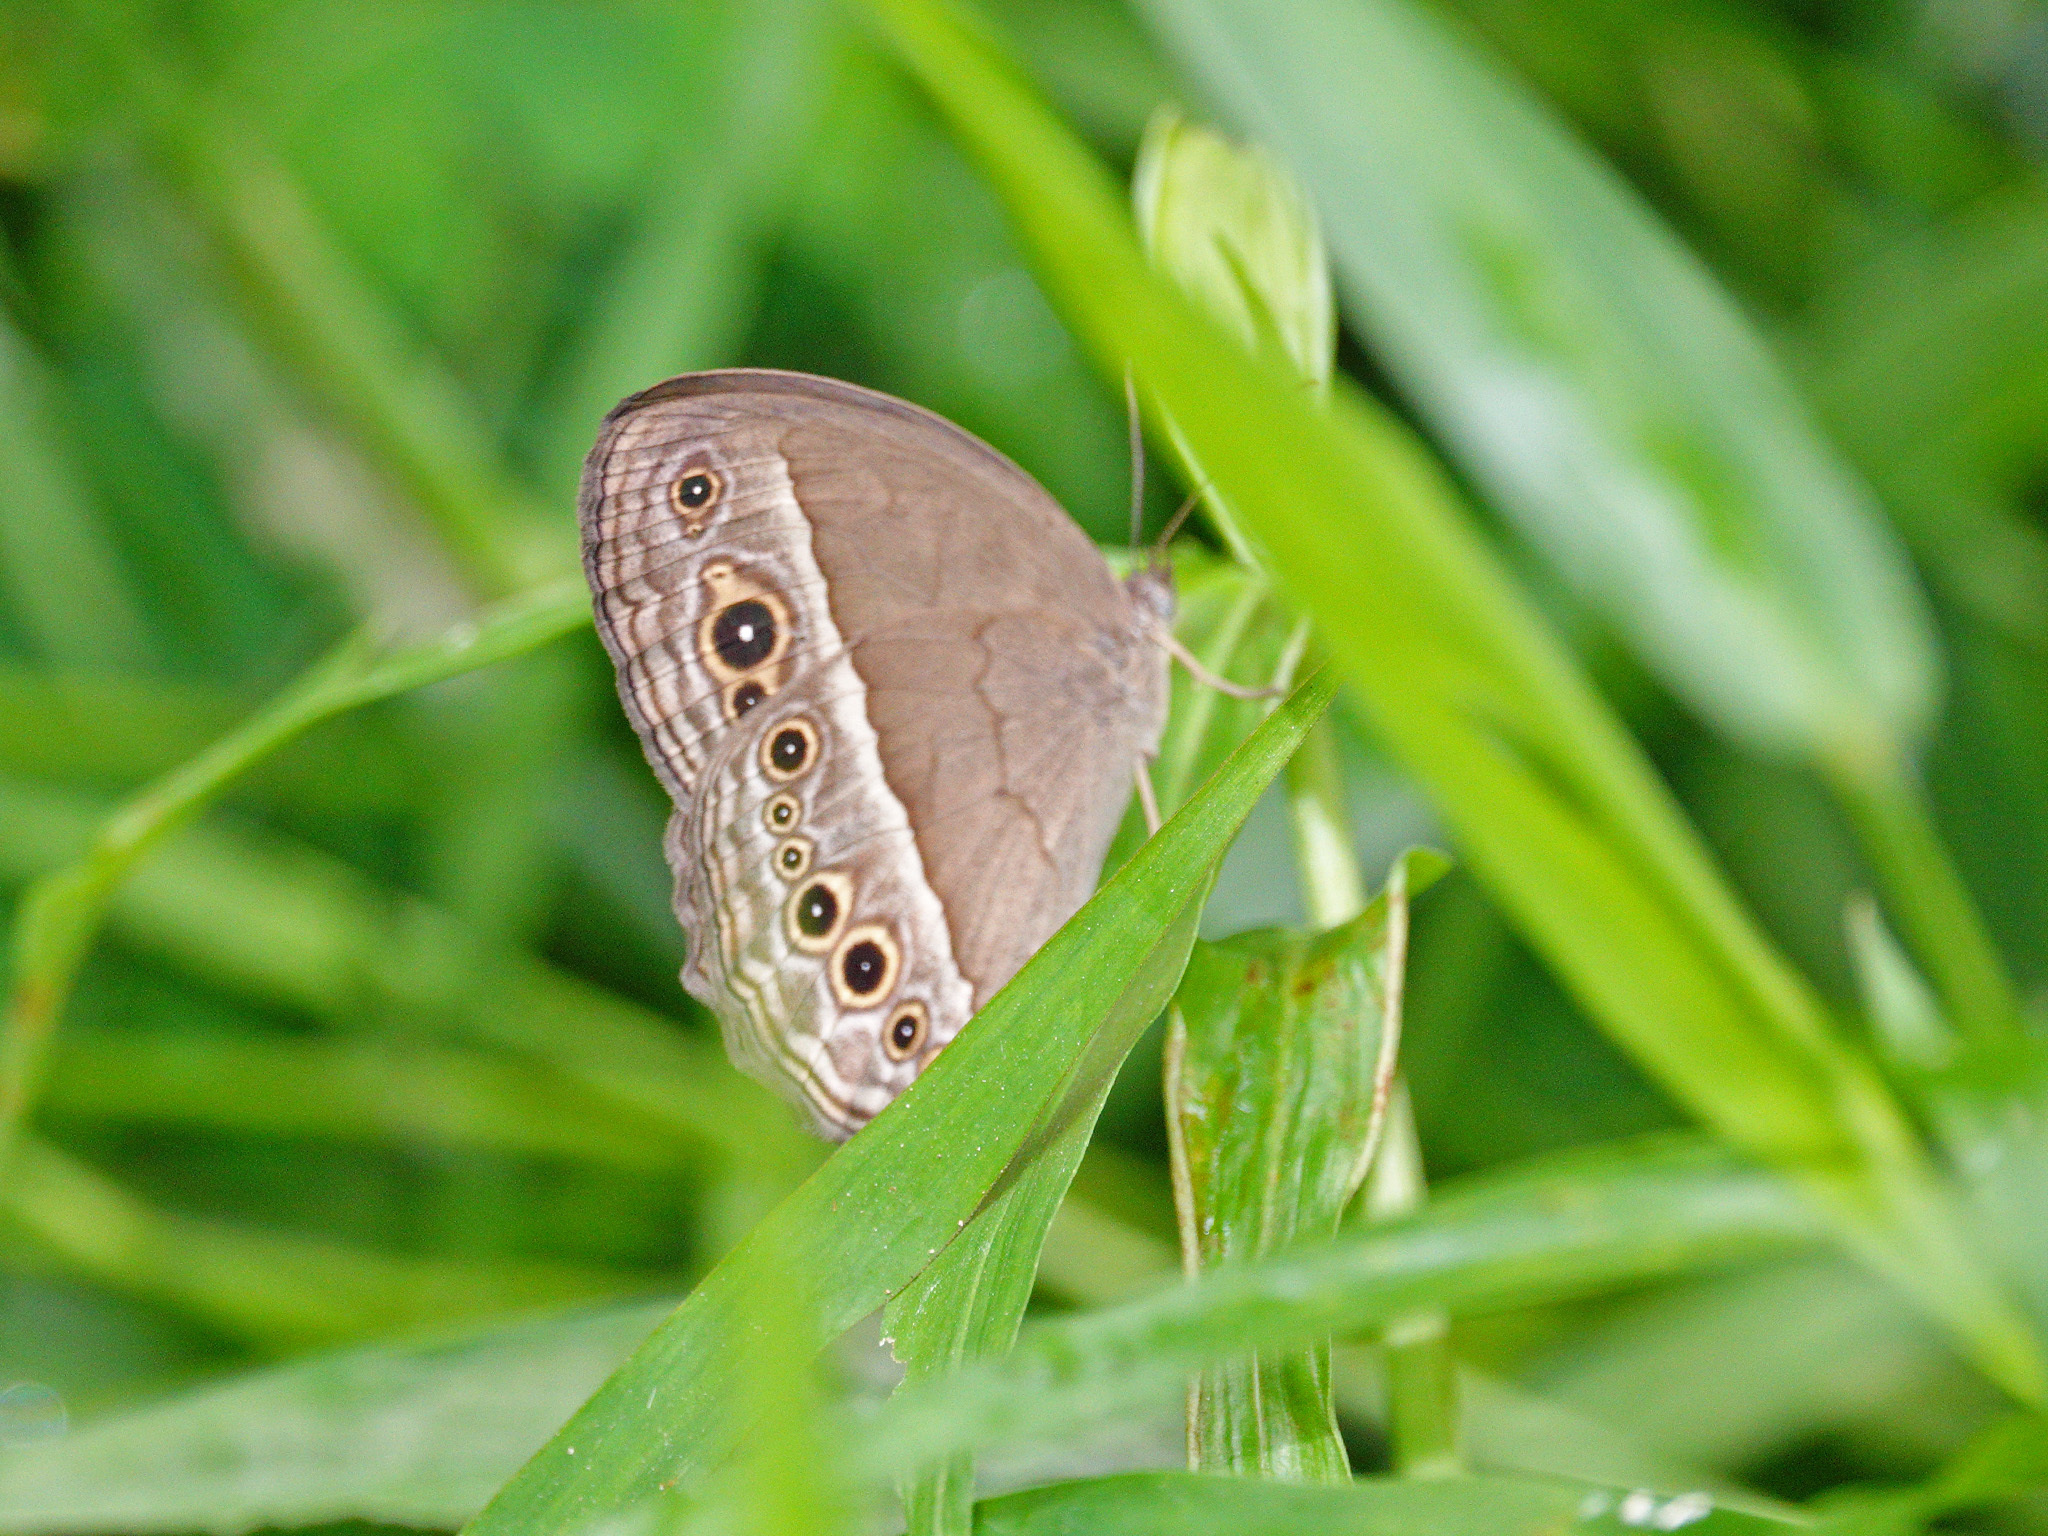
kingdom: Animalia
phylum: Arthropoda
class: Insecta
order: Lepidoptera
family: Nymphalidae
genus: Mycalesis
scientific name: Mycalesis perseoides
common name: Burmese bushbrown
